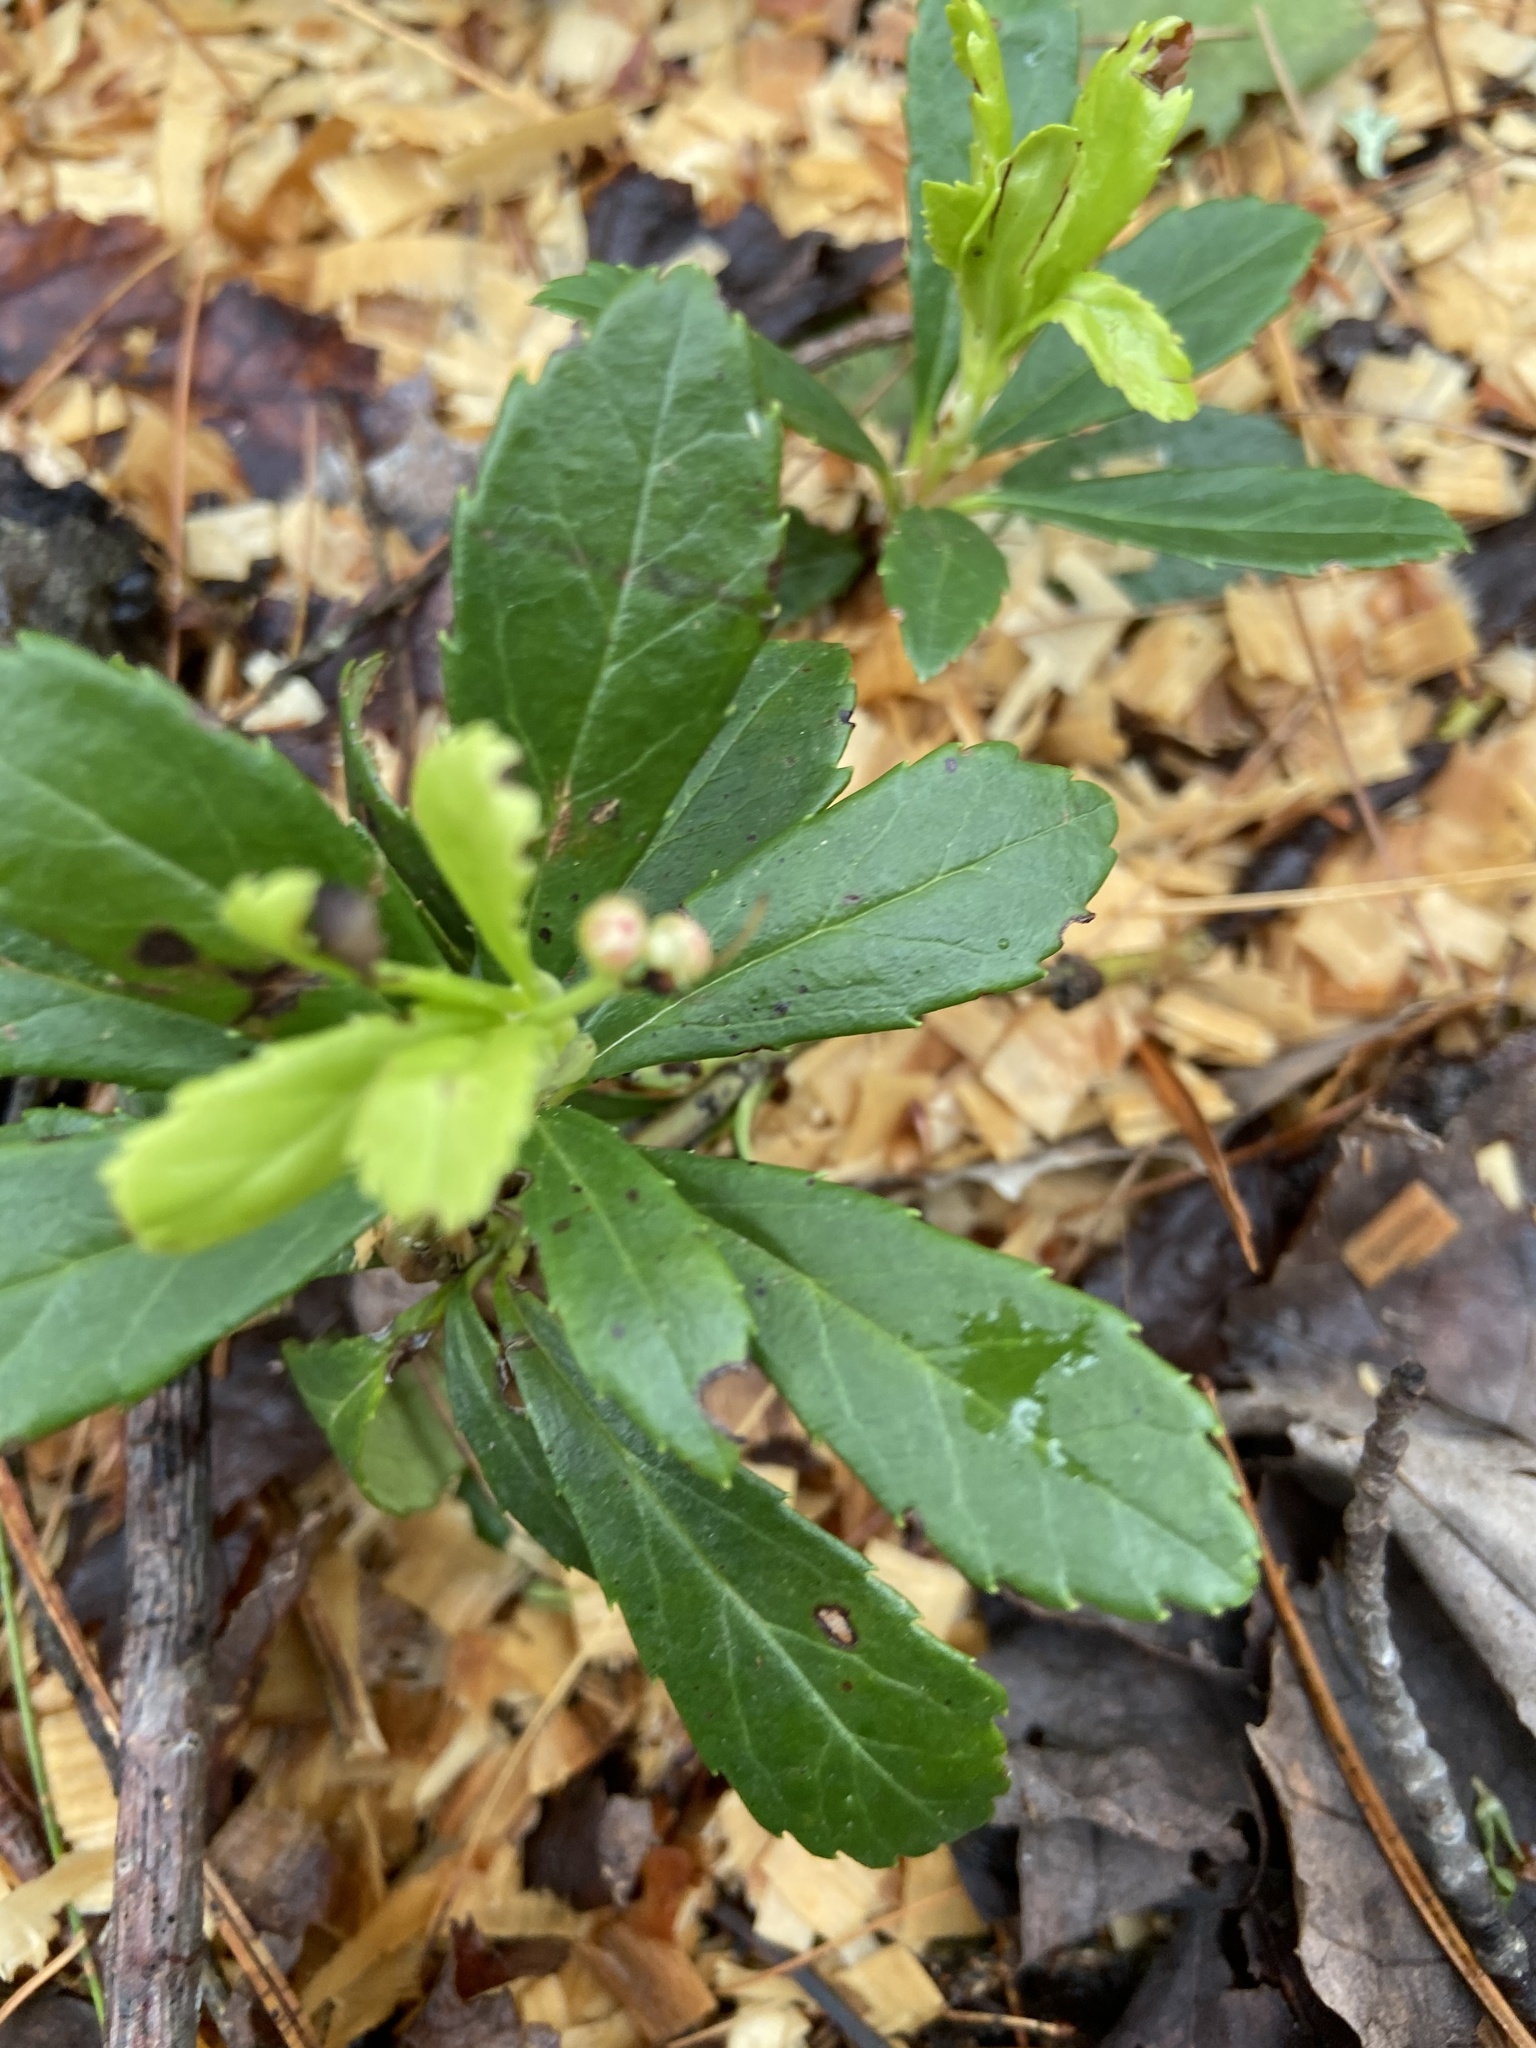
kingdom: Plantae
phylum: Tracheophyta
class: Magnoliopsida
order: Ericales
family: Ericaceae
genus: Chimaphila
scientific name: Chimaphila umbellata
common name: Pipsissewa
